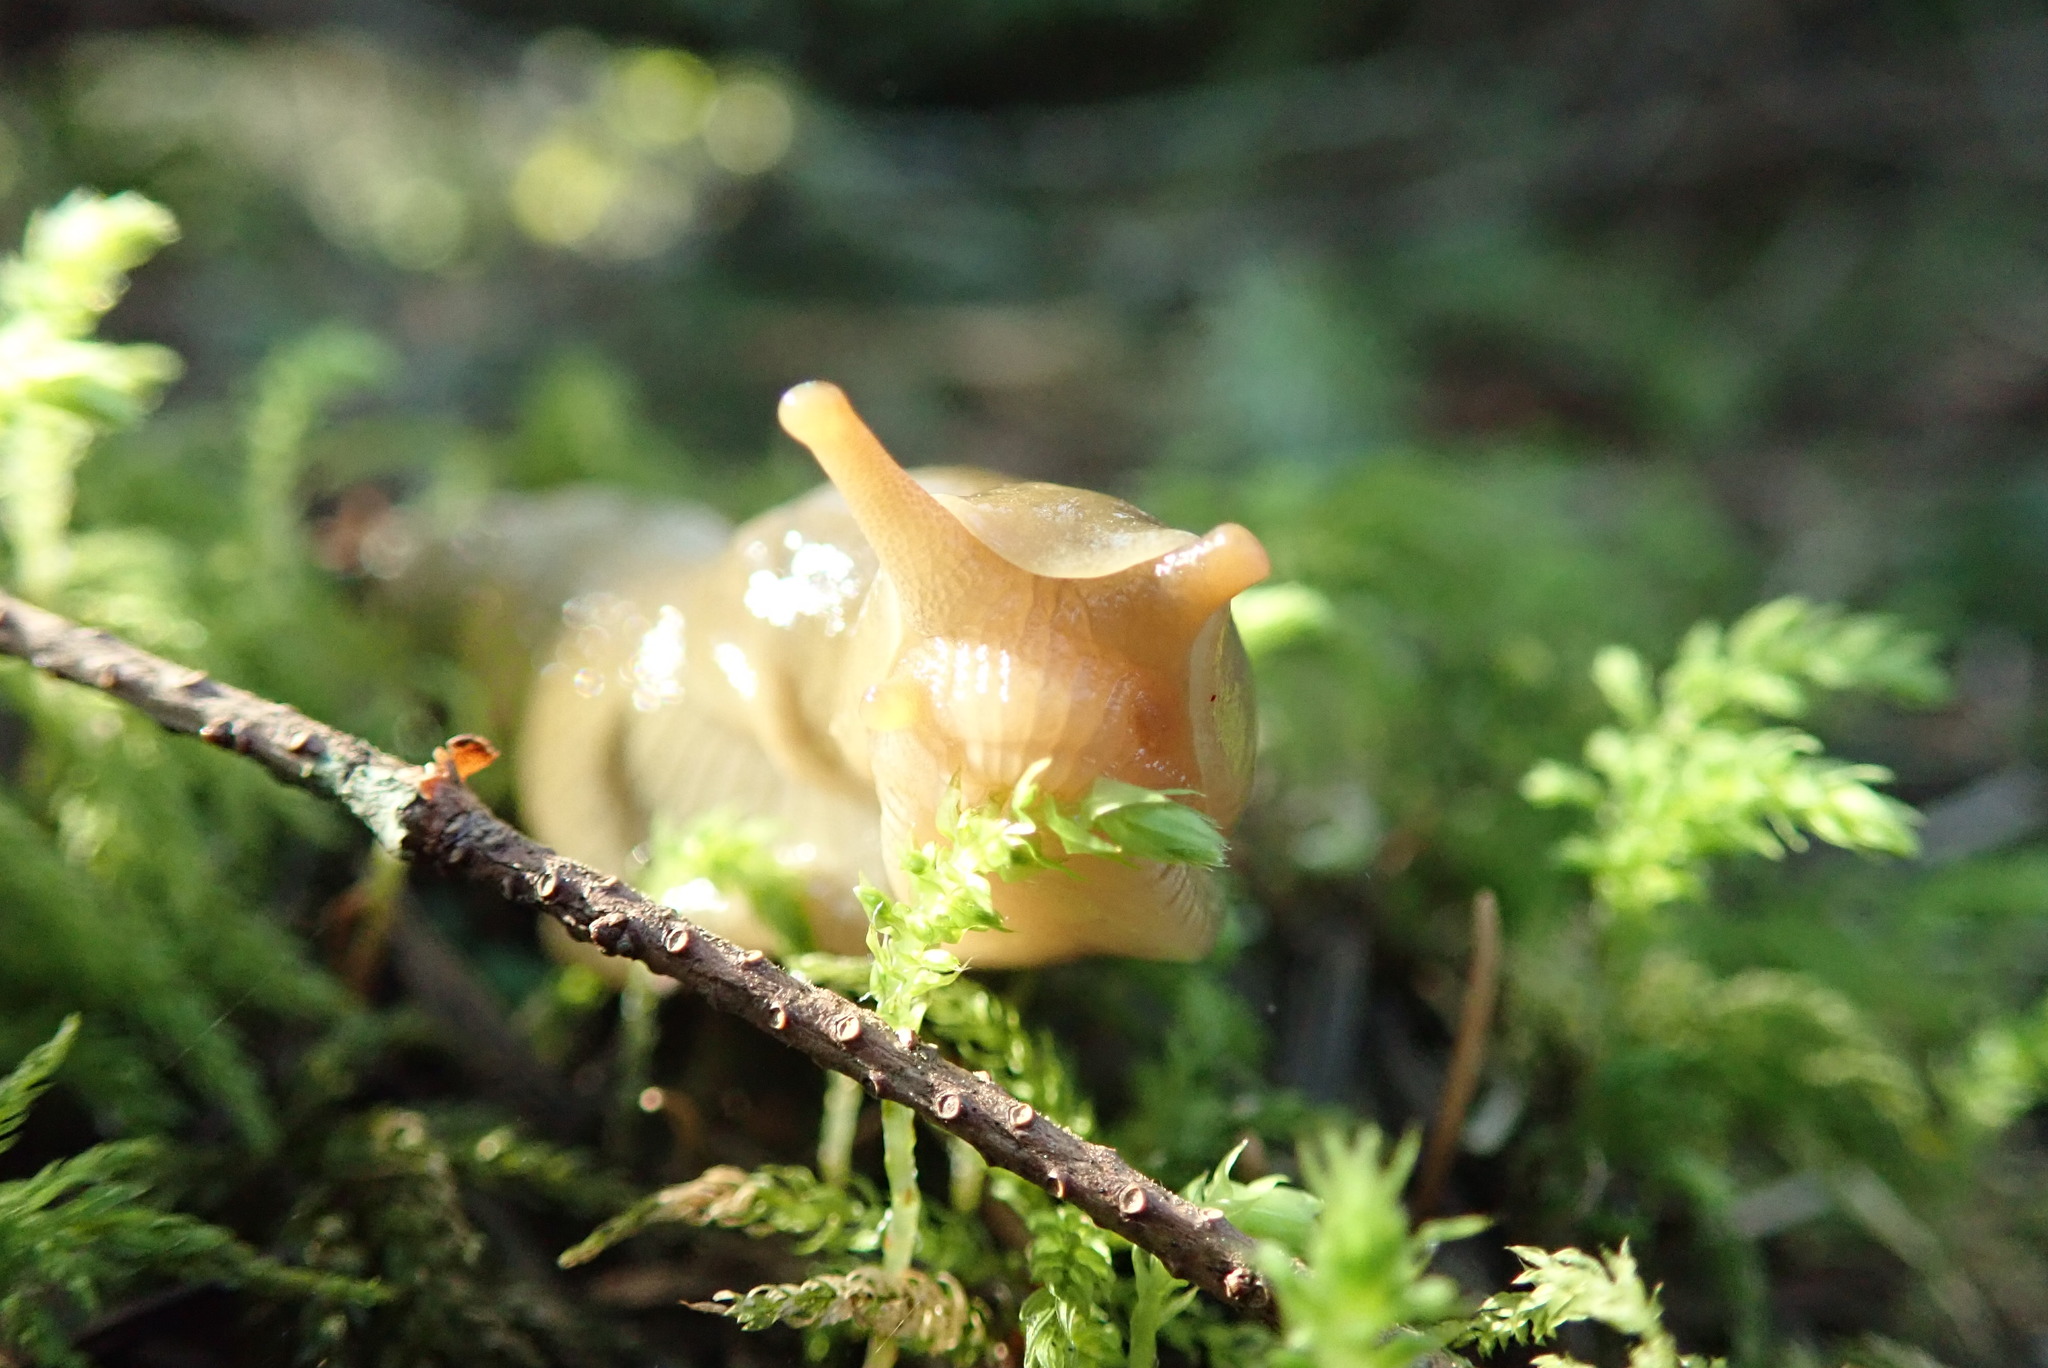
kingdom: Animalia
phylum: Mollusca
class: Gastropoda
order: Stylommatophora
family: Ariolimacidae
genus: Ariolimax
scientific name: Ariolimax columbianus
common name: Pacific banana slug
